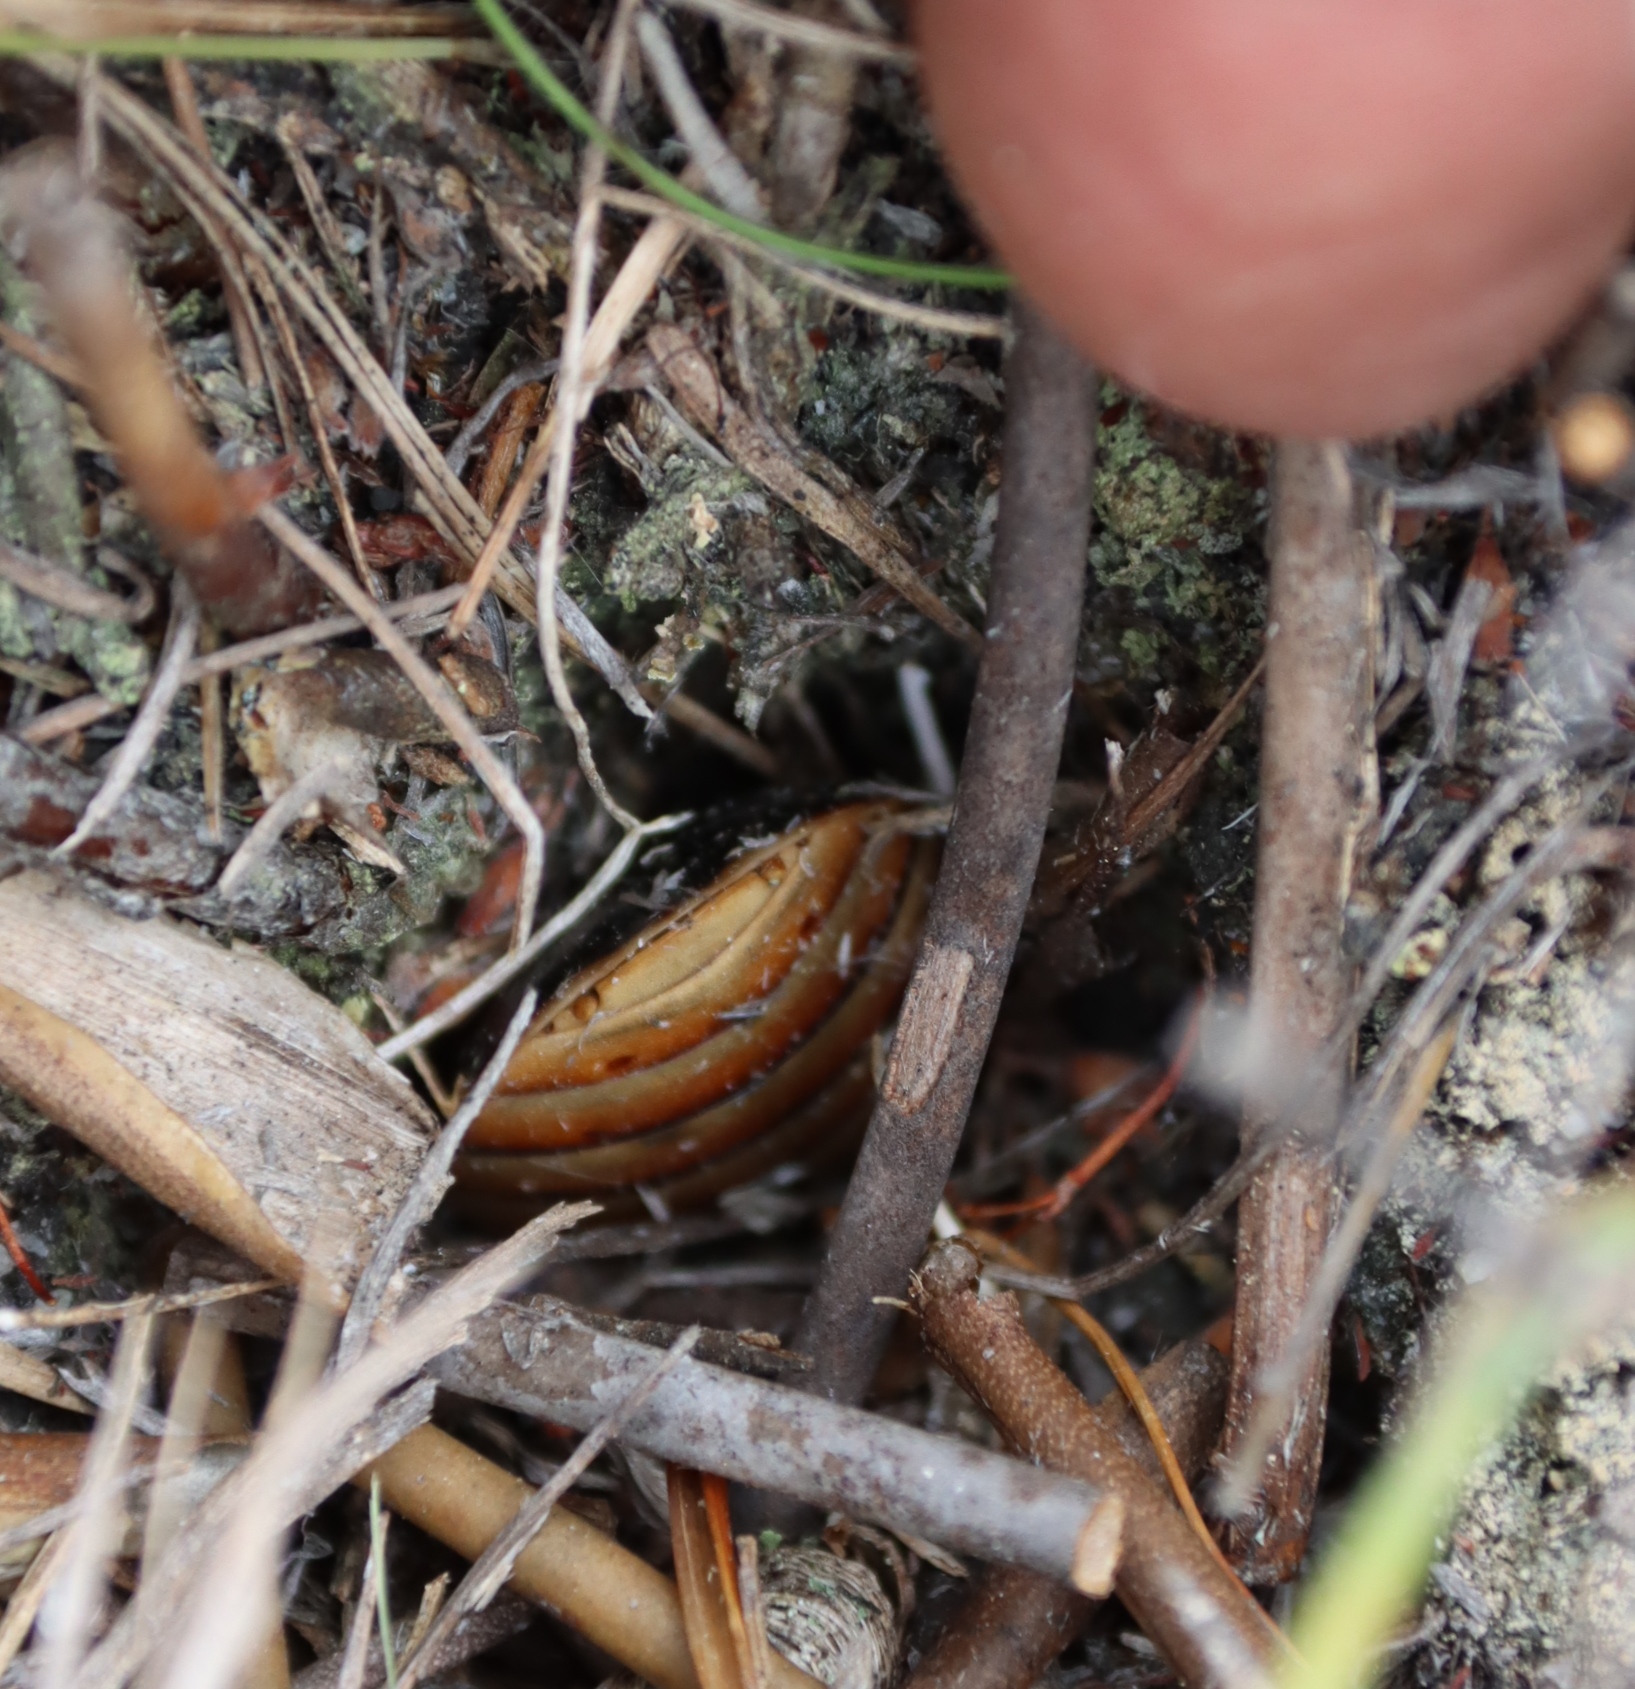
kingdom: Animalia
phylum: Arthropoda
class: Insecta
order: Blattodea
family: Blaberidae
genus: Aptera
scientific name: Aptera fusca
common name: Cape mountain cockroach
